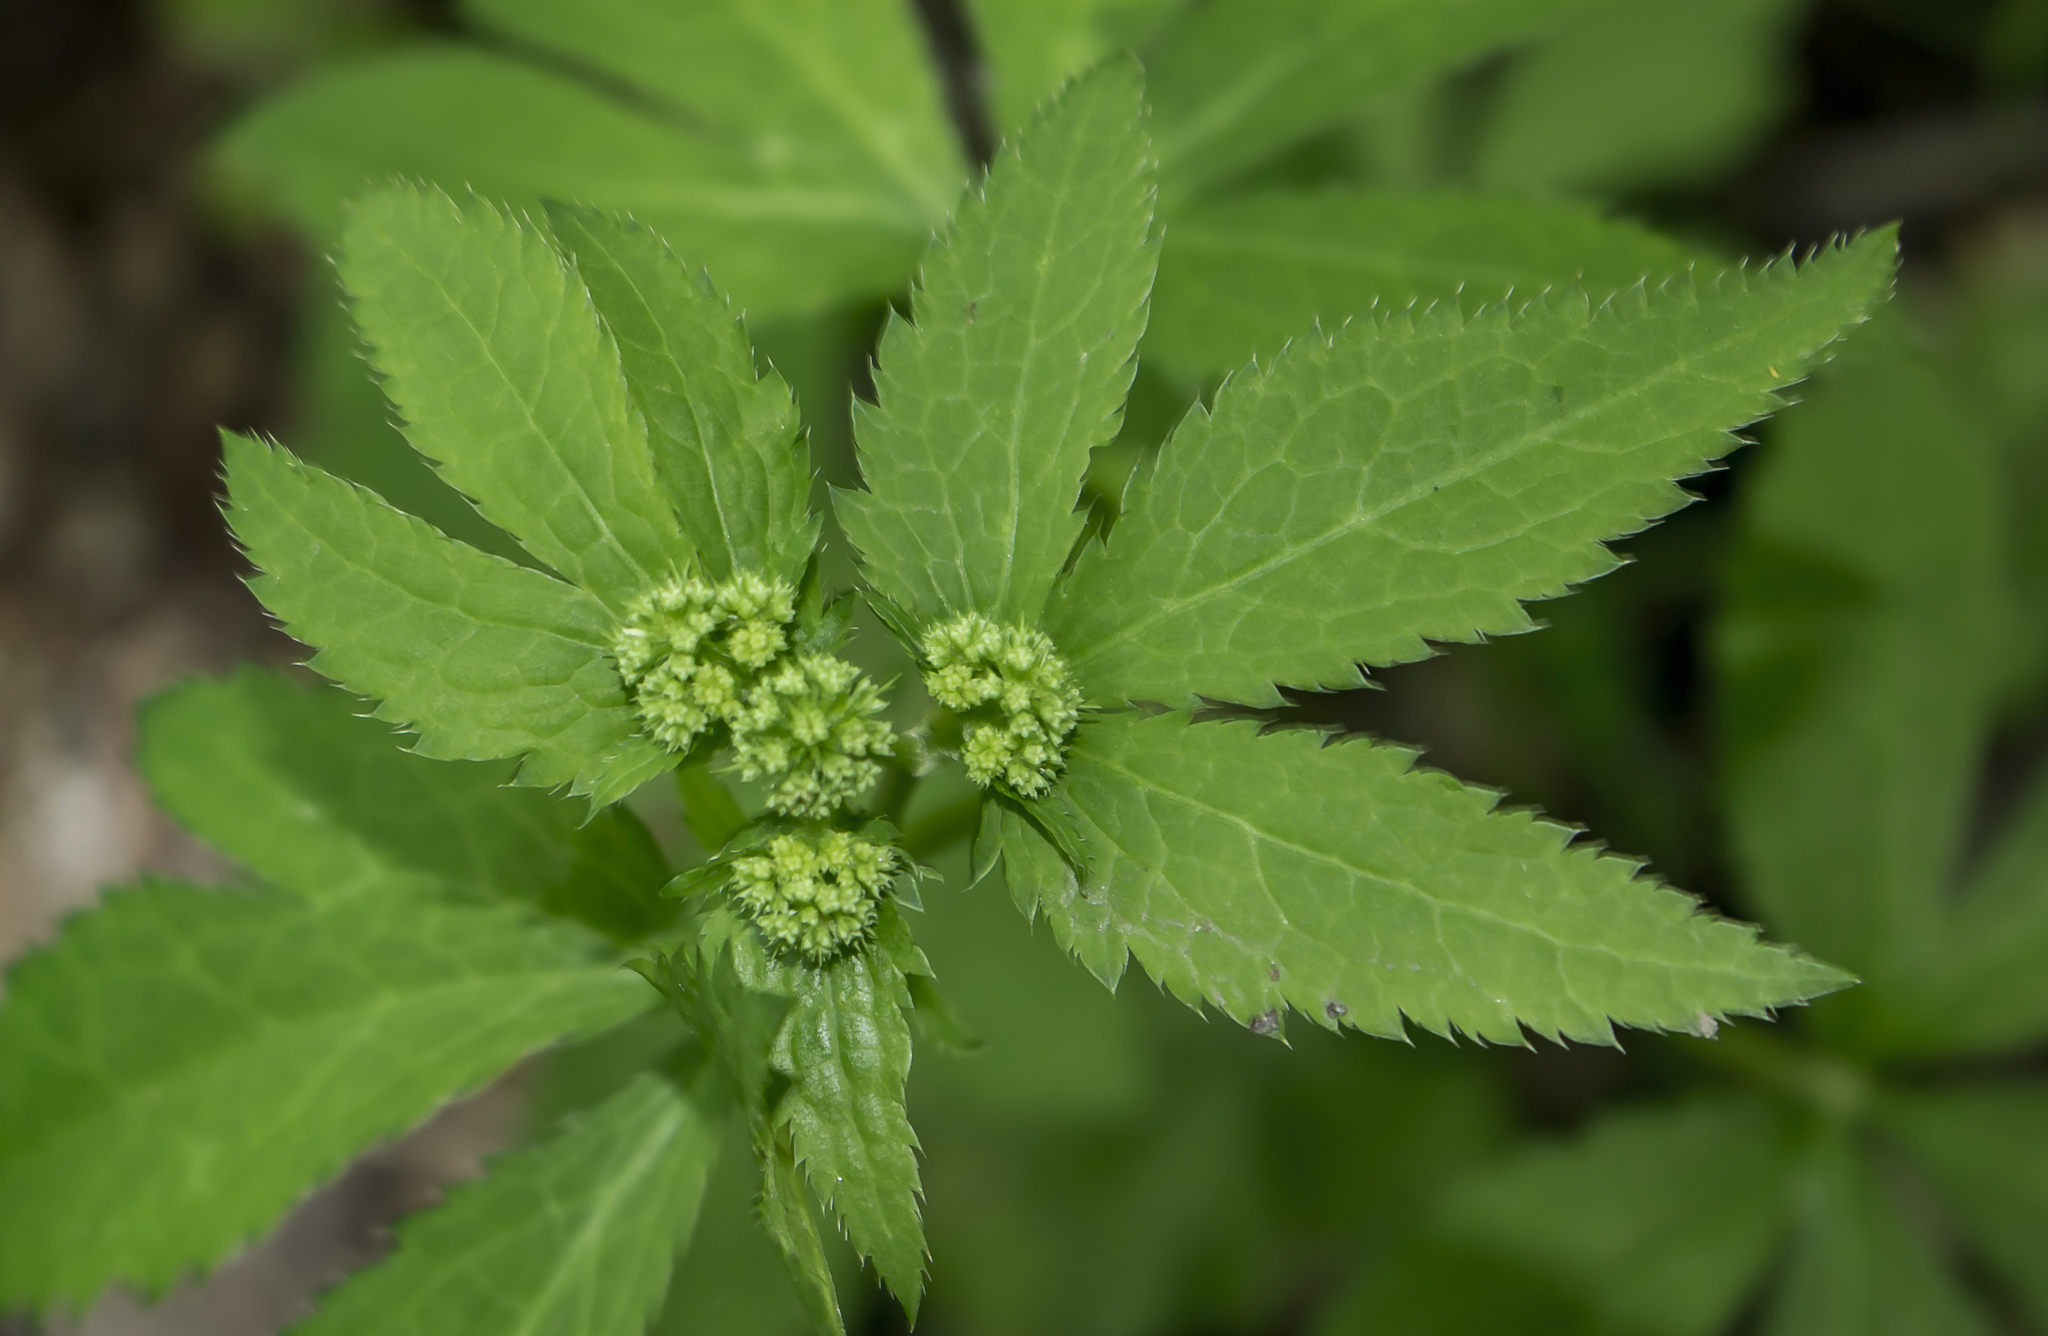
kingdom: Plantae
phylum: Tracheophyta
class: Magnoliopsida
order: Apiales
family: Apiaceae
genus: Sanicula
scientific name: Sanicula marilandica
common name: Black snakeroot
